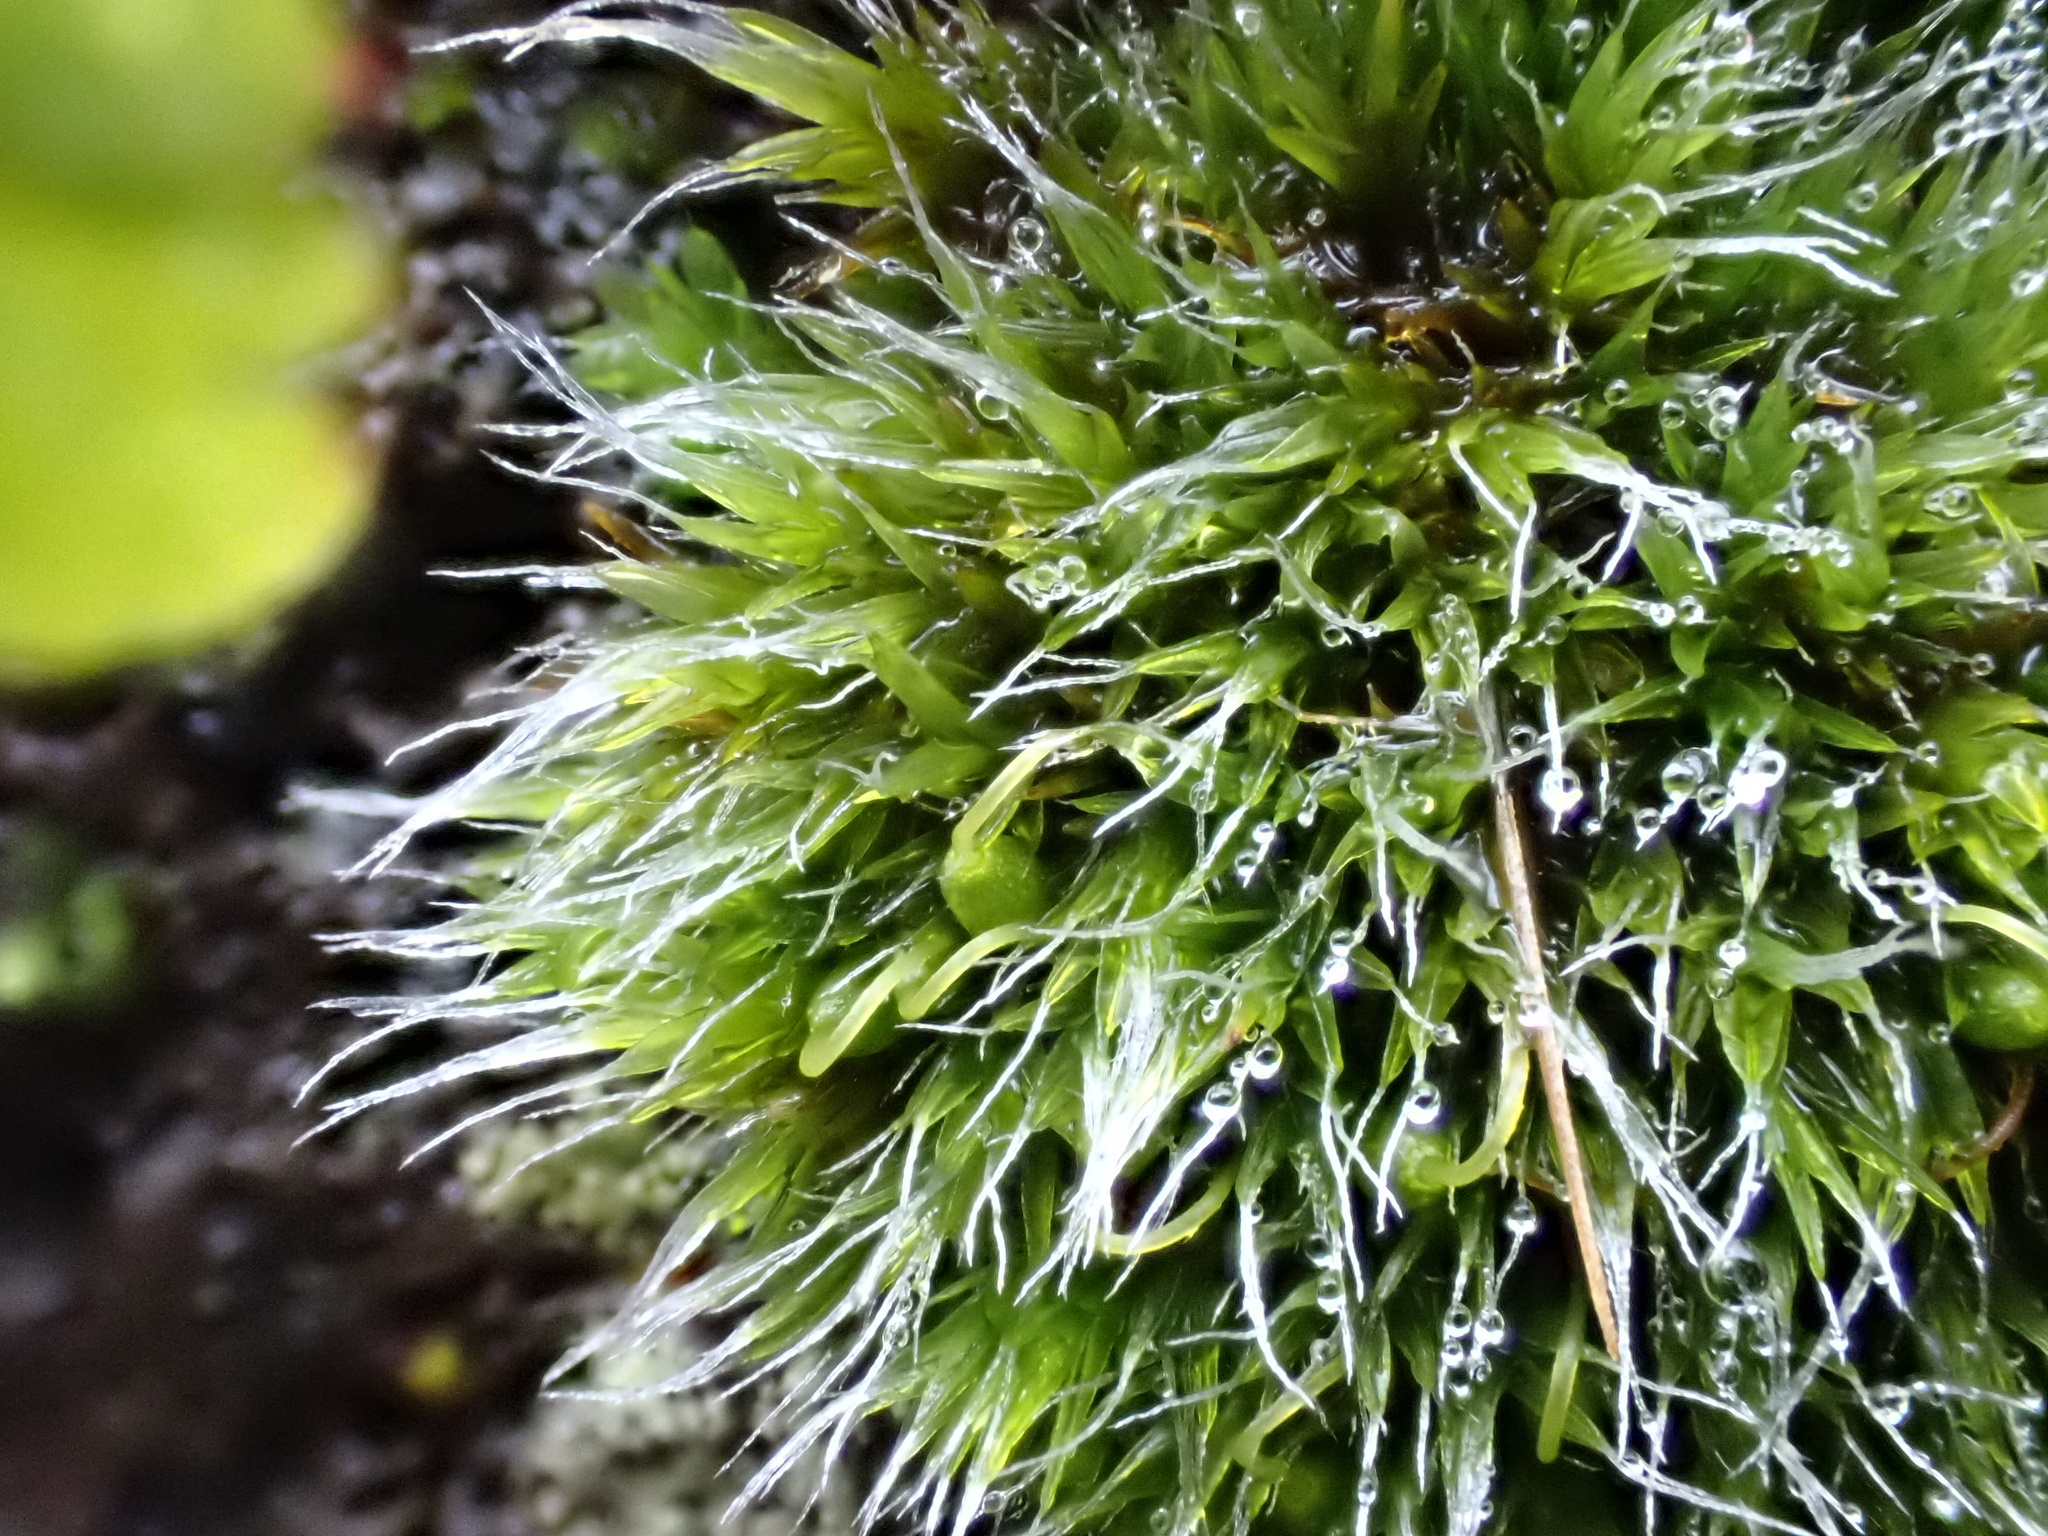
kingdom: Plantae
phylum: Bryophyta
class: Bryopsida
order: Grimmiales
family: Grimmiaceae
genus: Grimmia
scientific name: Grimmia pulvinata
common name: Grey-cushioned grimmia
